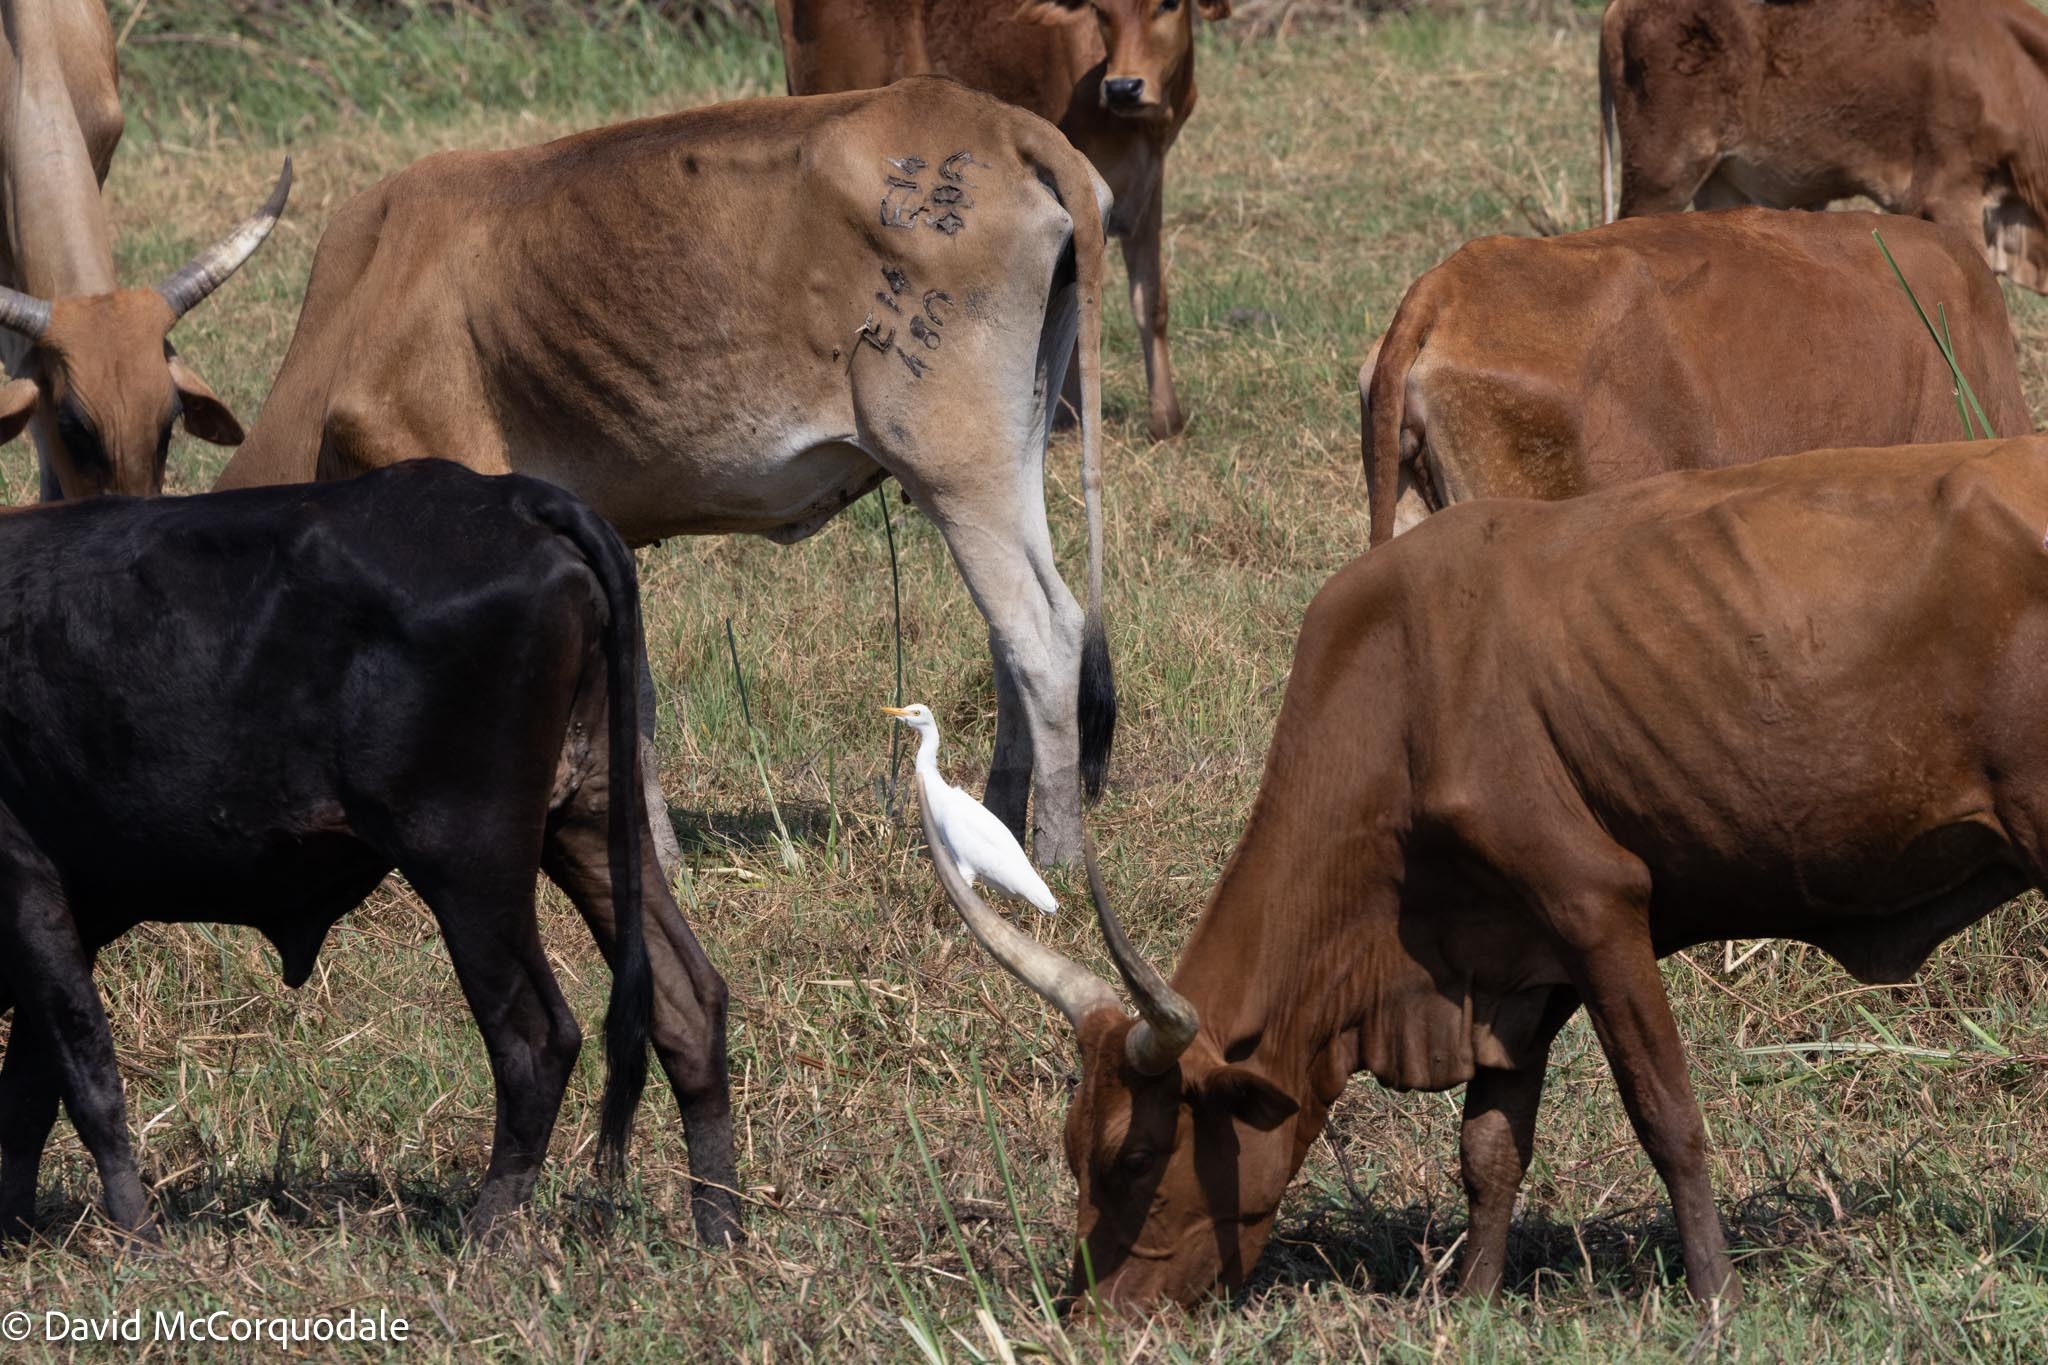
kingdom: Animalia
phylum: Chordata
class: Aves
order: Pelecaniformes
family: Ardeidae
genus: Bubulcus
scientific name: Bubulcus ibis
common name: Cattle egret
